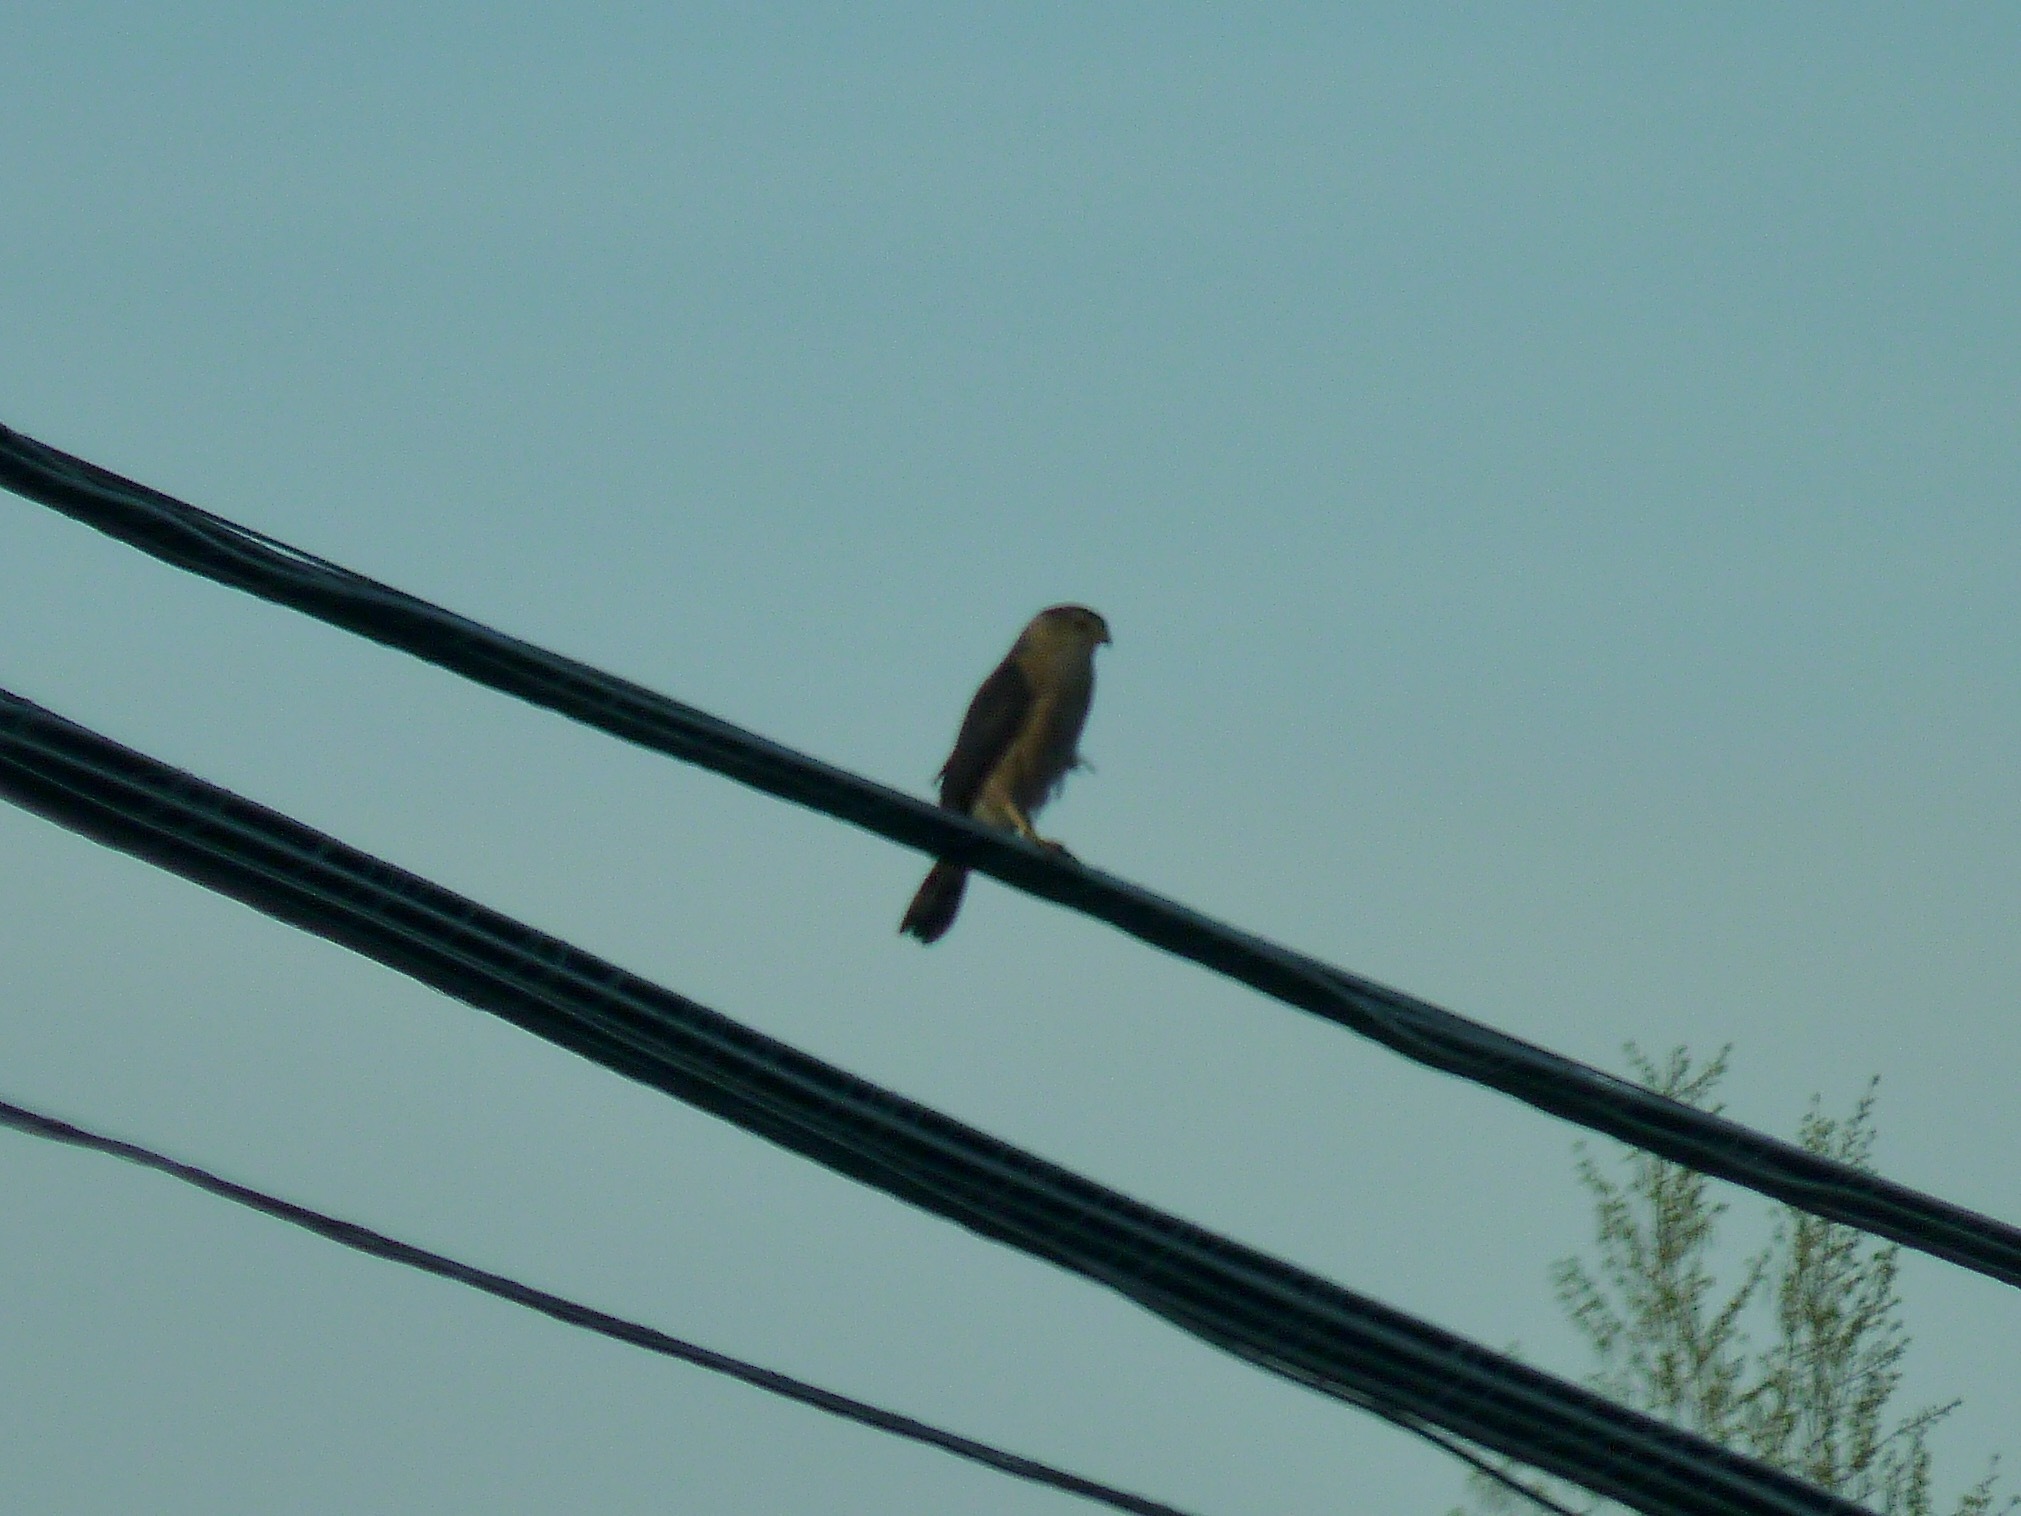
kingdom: Animalia
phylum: Chordata
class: Aves
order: Accipitriformes
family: Accipitridae
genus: Accipiter
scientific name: Accipiter cooperii
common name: Cooper's hawk
